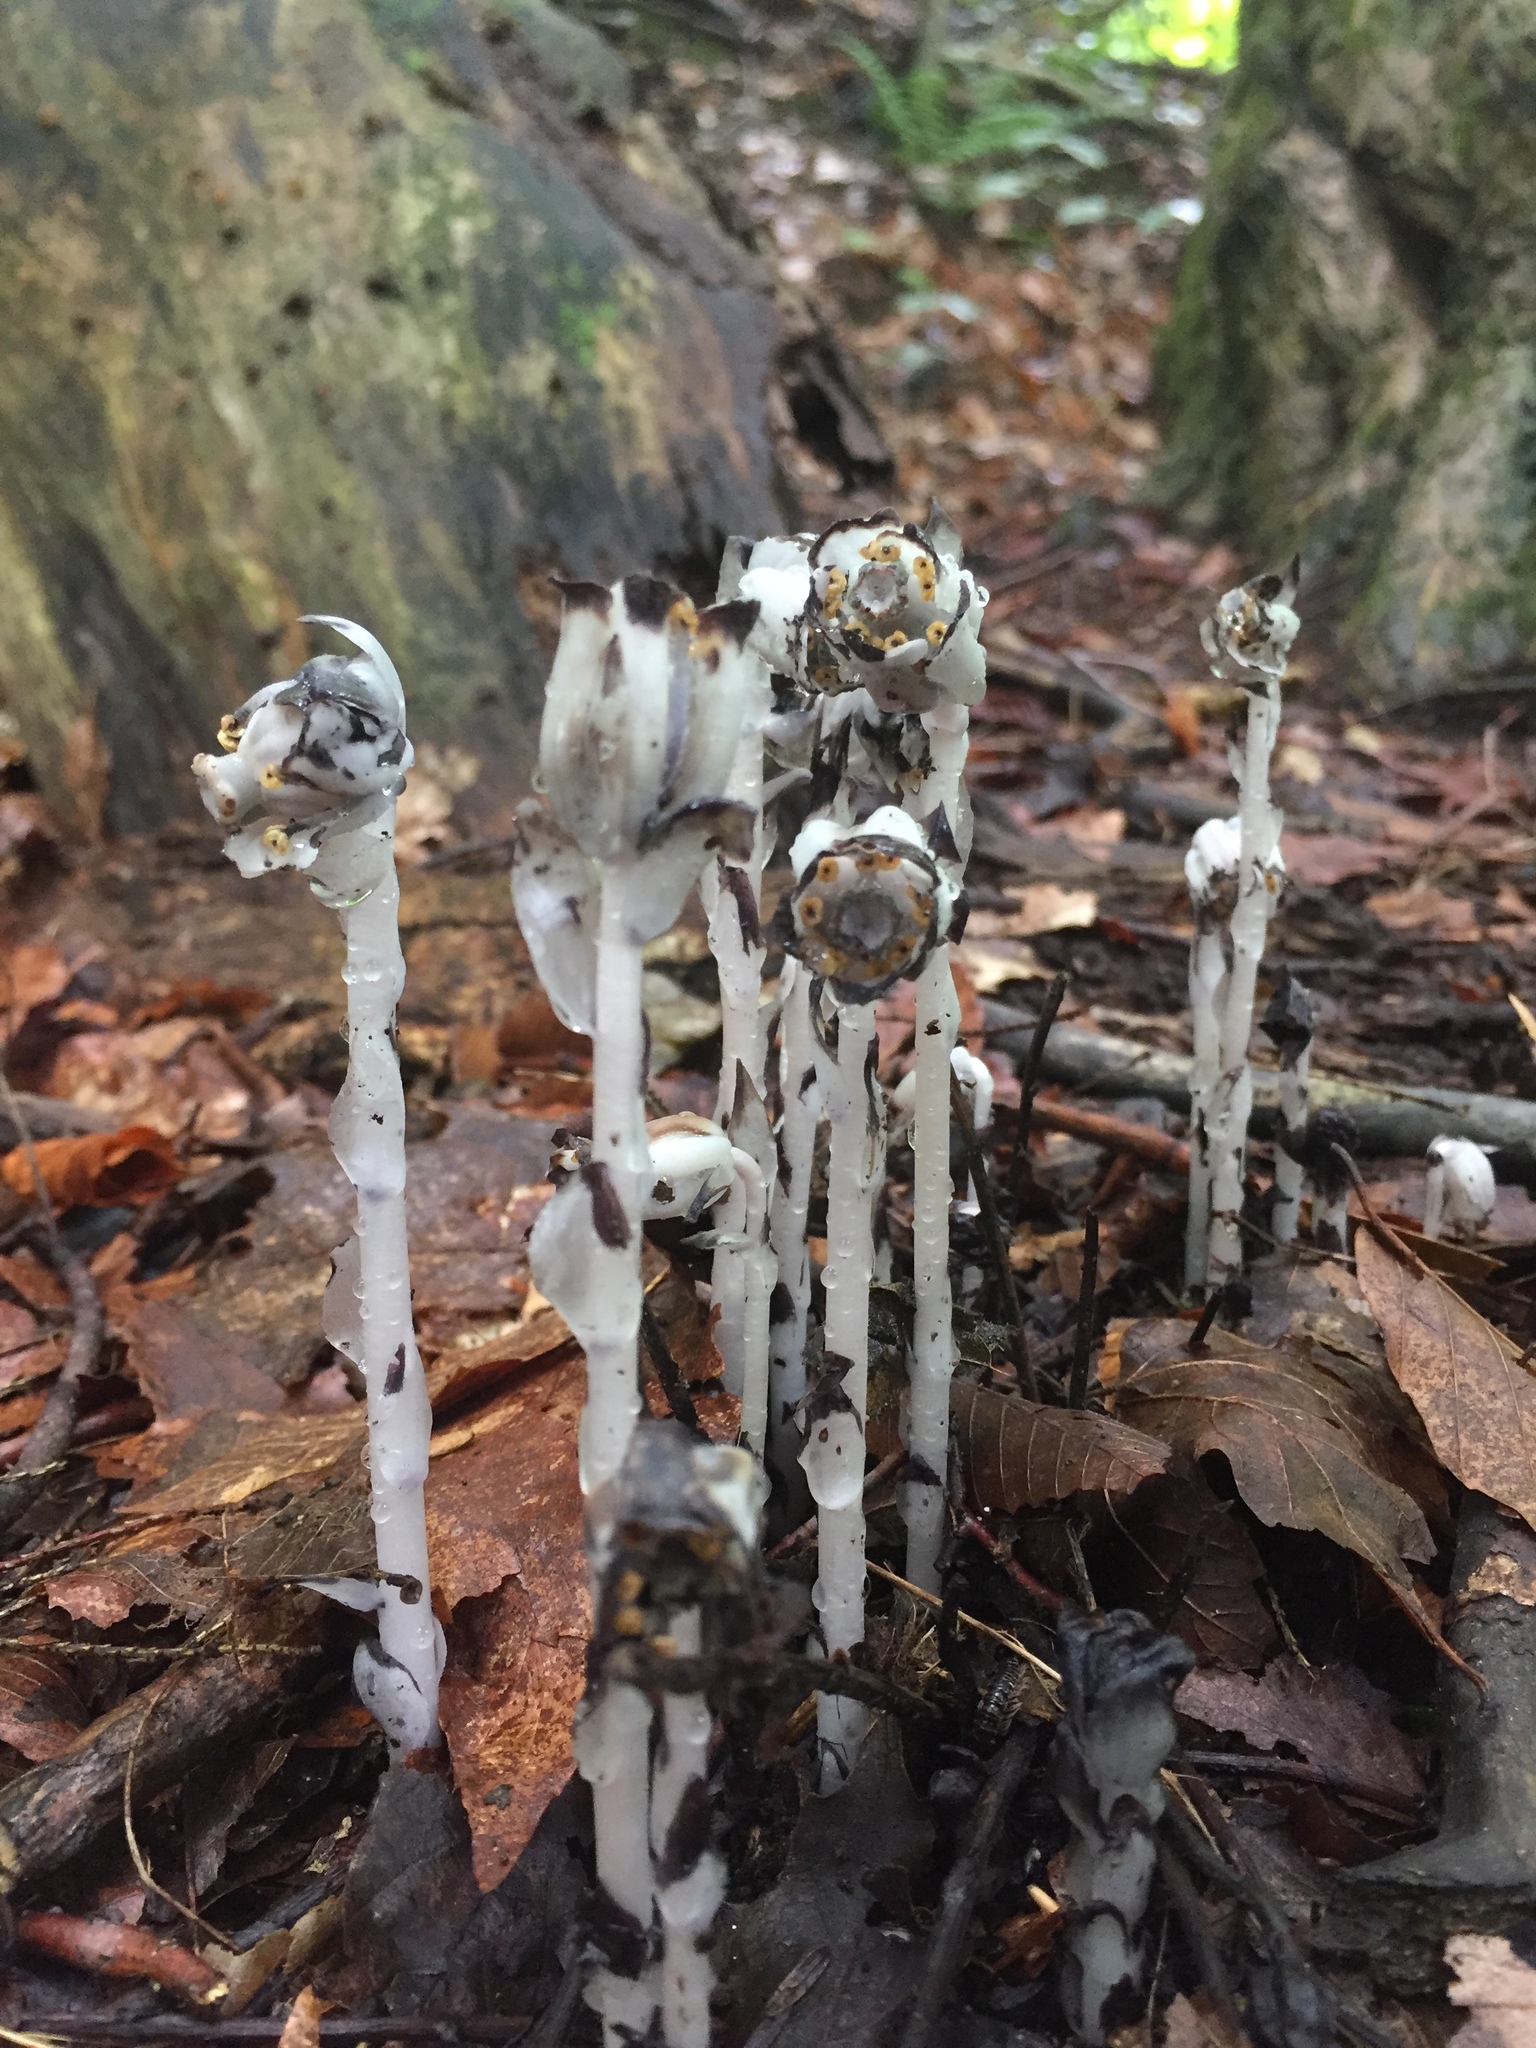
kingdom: Plantae
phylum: Tracheophyta
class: Magnoliopsida
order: Ericales
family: Ericaceae
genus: Monotropa
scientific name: Monotropa uniflora
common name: Convulsion root
